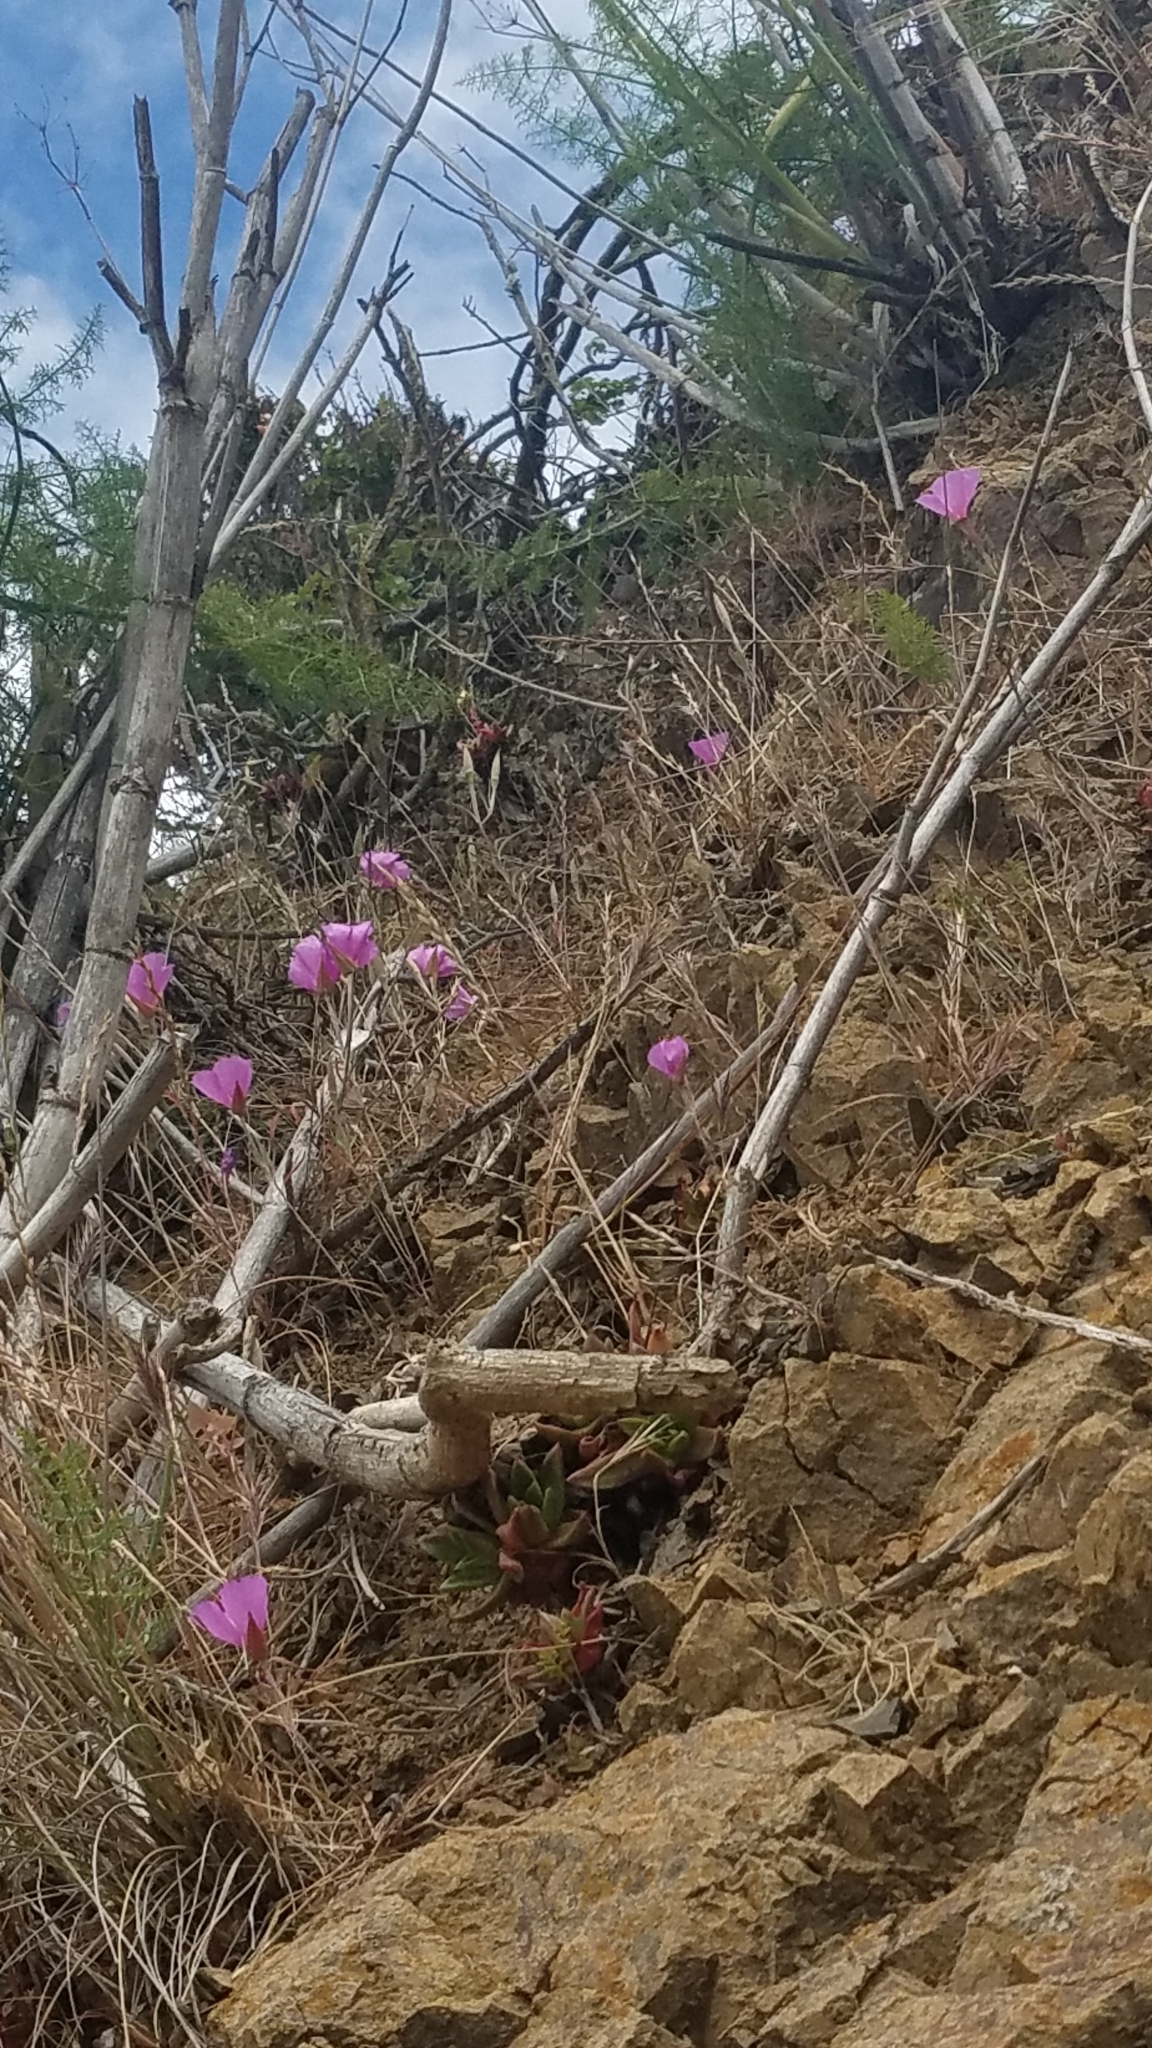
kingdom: Plantae
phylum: Tracheophyta
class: Magnoliopsida
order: Myrtales
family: Onagraceae
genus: Clarkia
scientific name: Clarkia rubicunda
